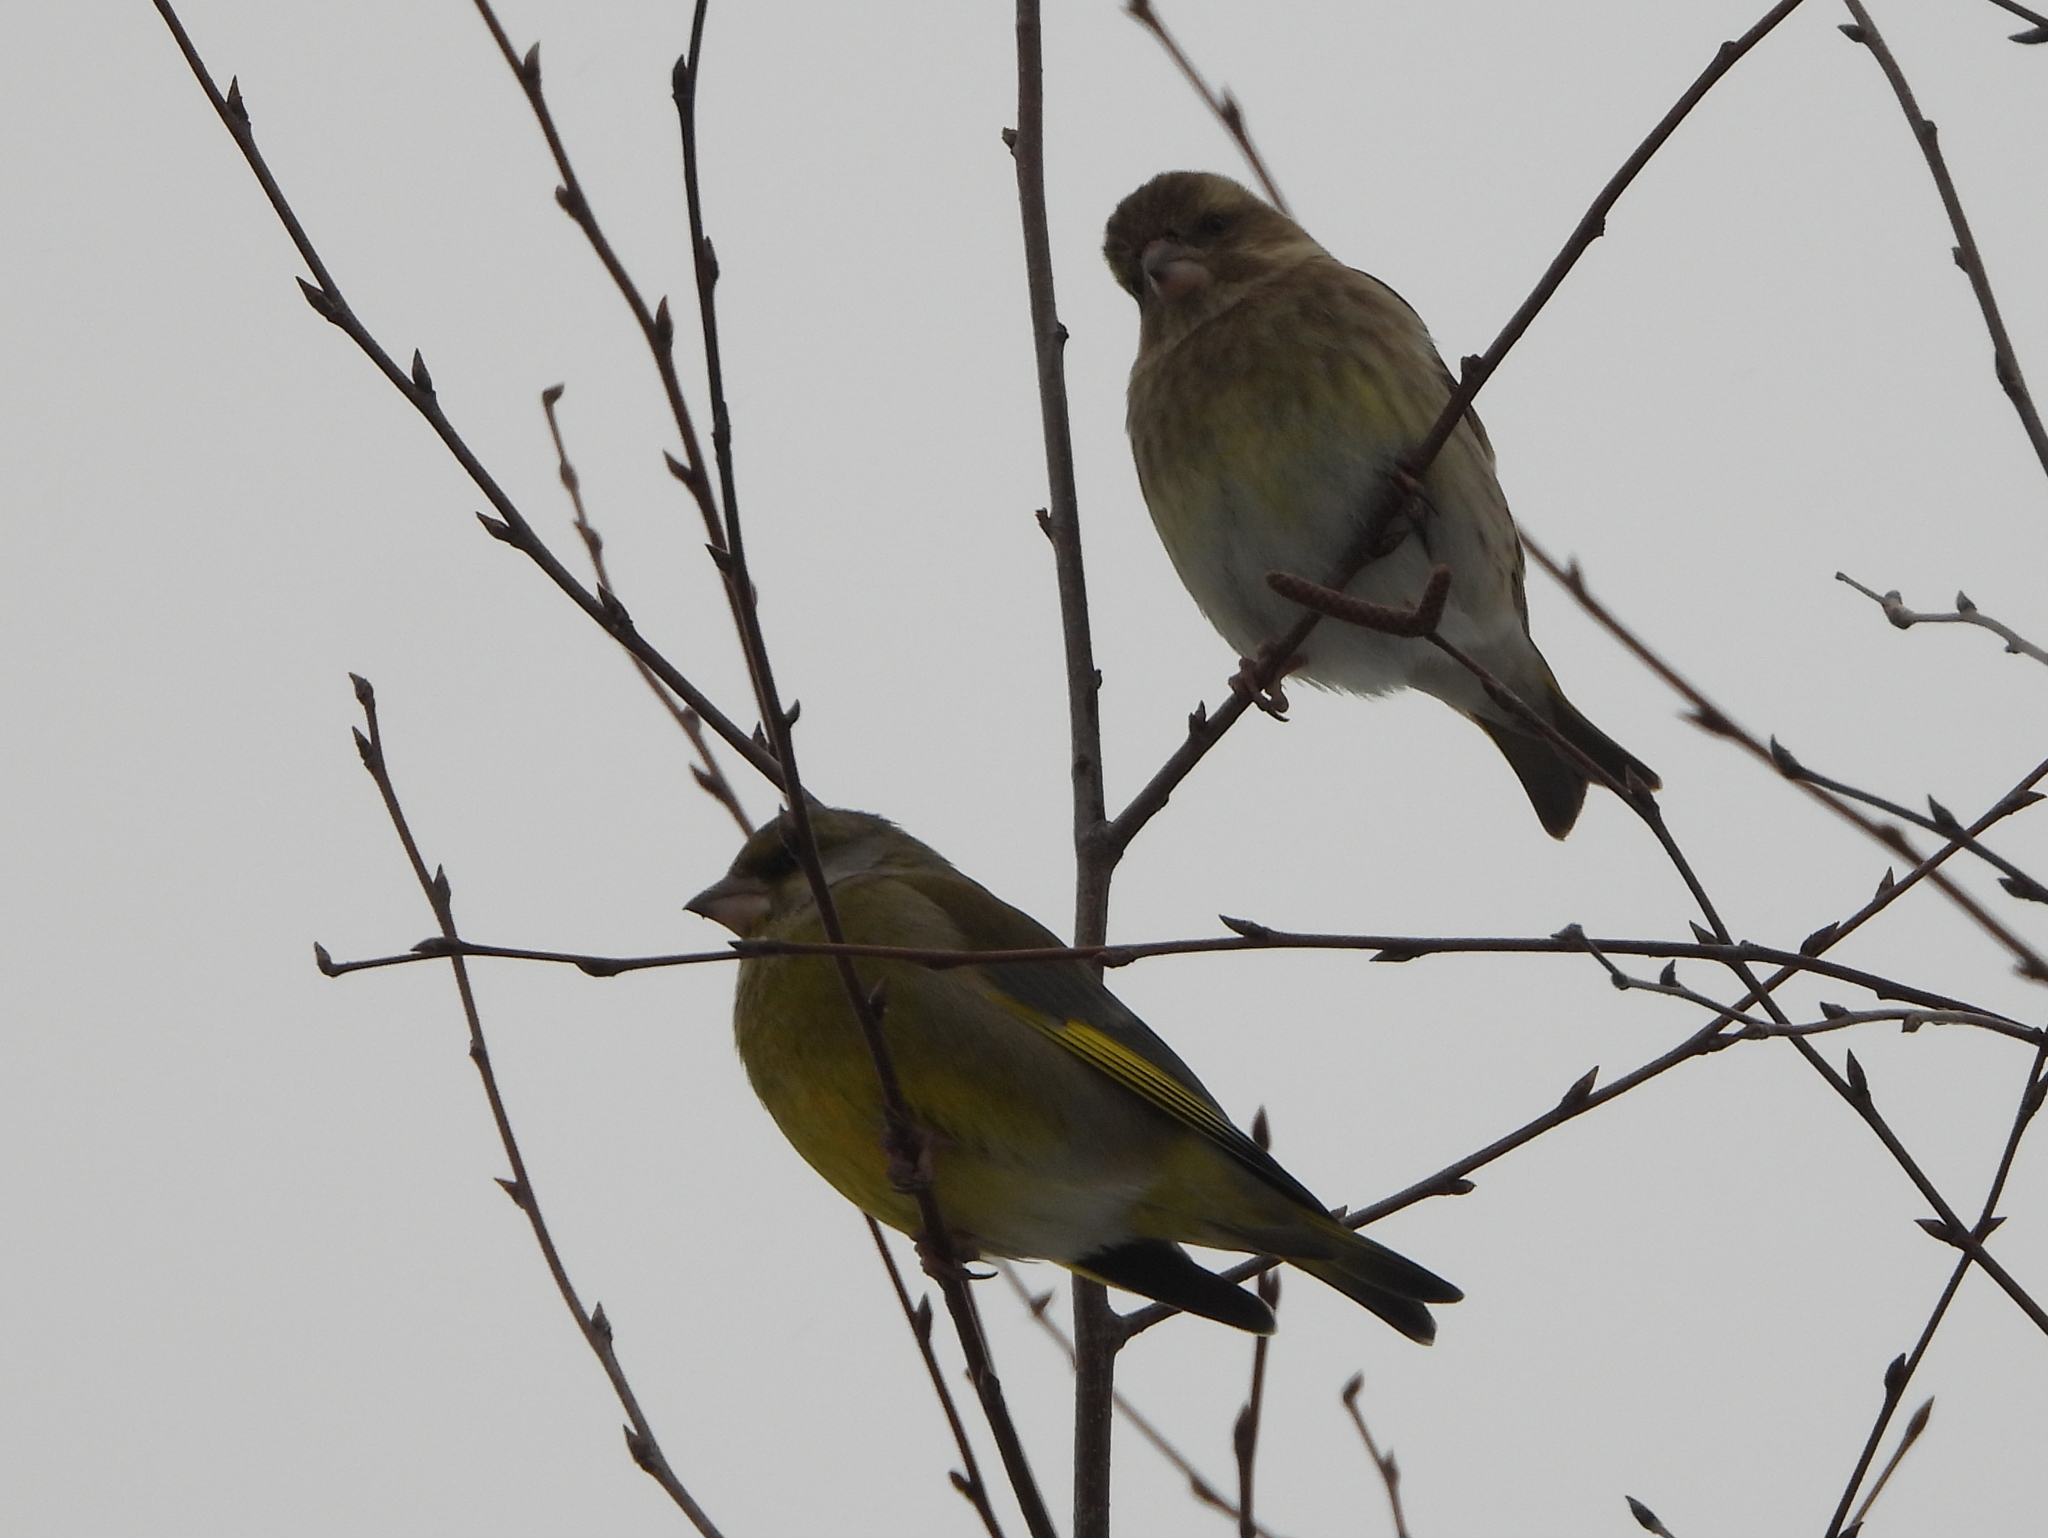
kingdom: Plantae
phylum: Tracheophyta
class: Liliopsida
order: Poales
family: Poaceae
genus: Chloris
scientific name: Chloris chloris
